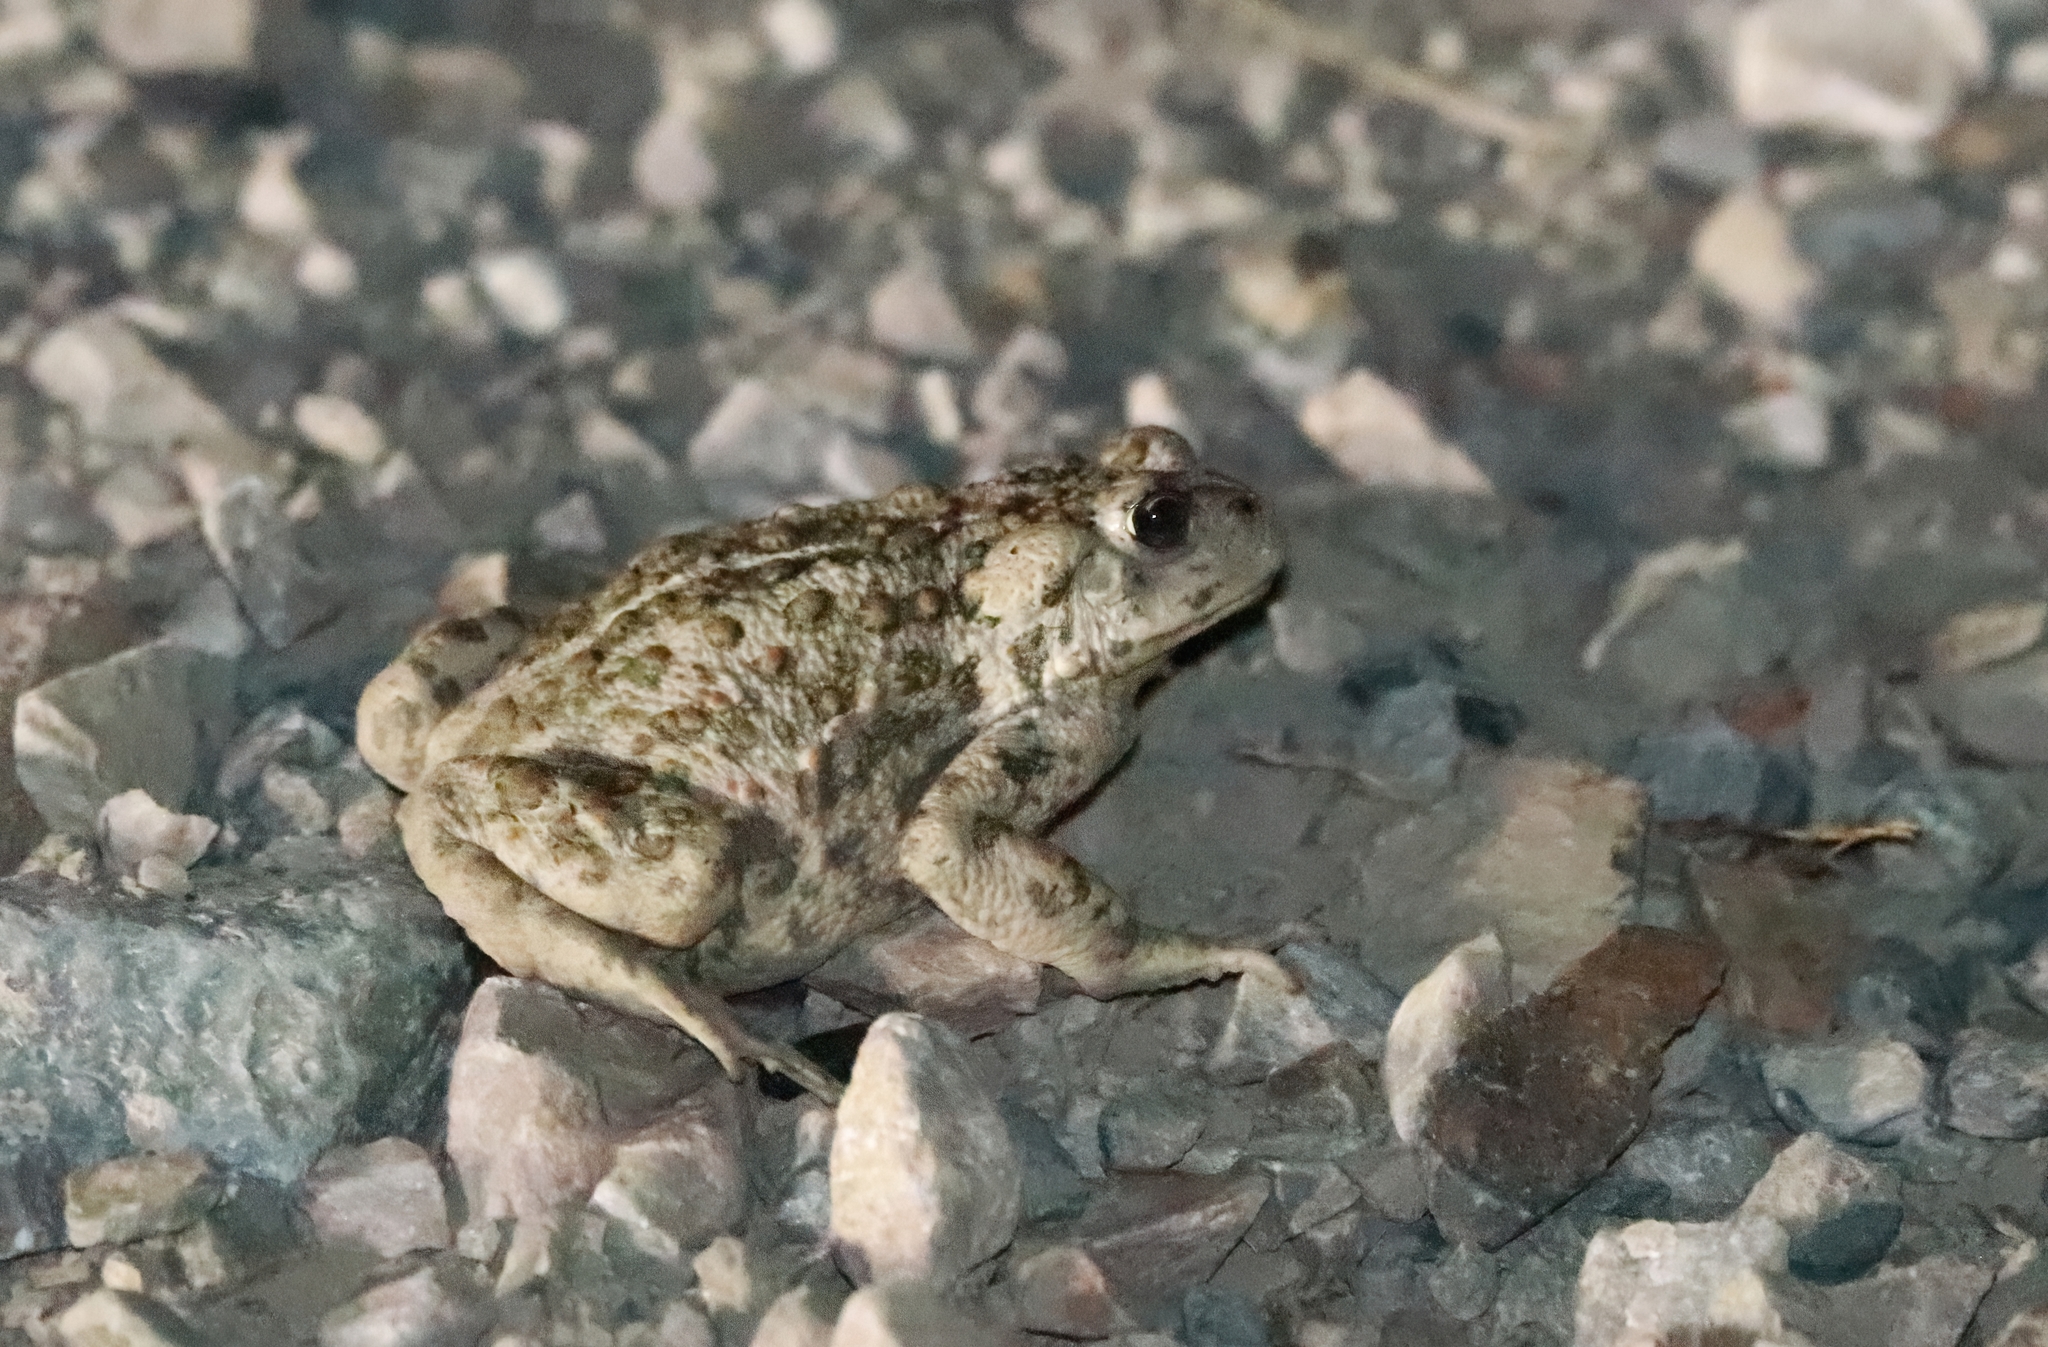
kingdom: Animalia
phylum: Chordata
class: Amphibia
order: Anura
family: Bufonidae
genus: Anaxyrus
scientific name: Anaxyrus boreas
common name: Western toad
